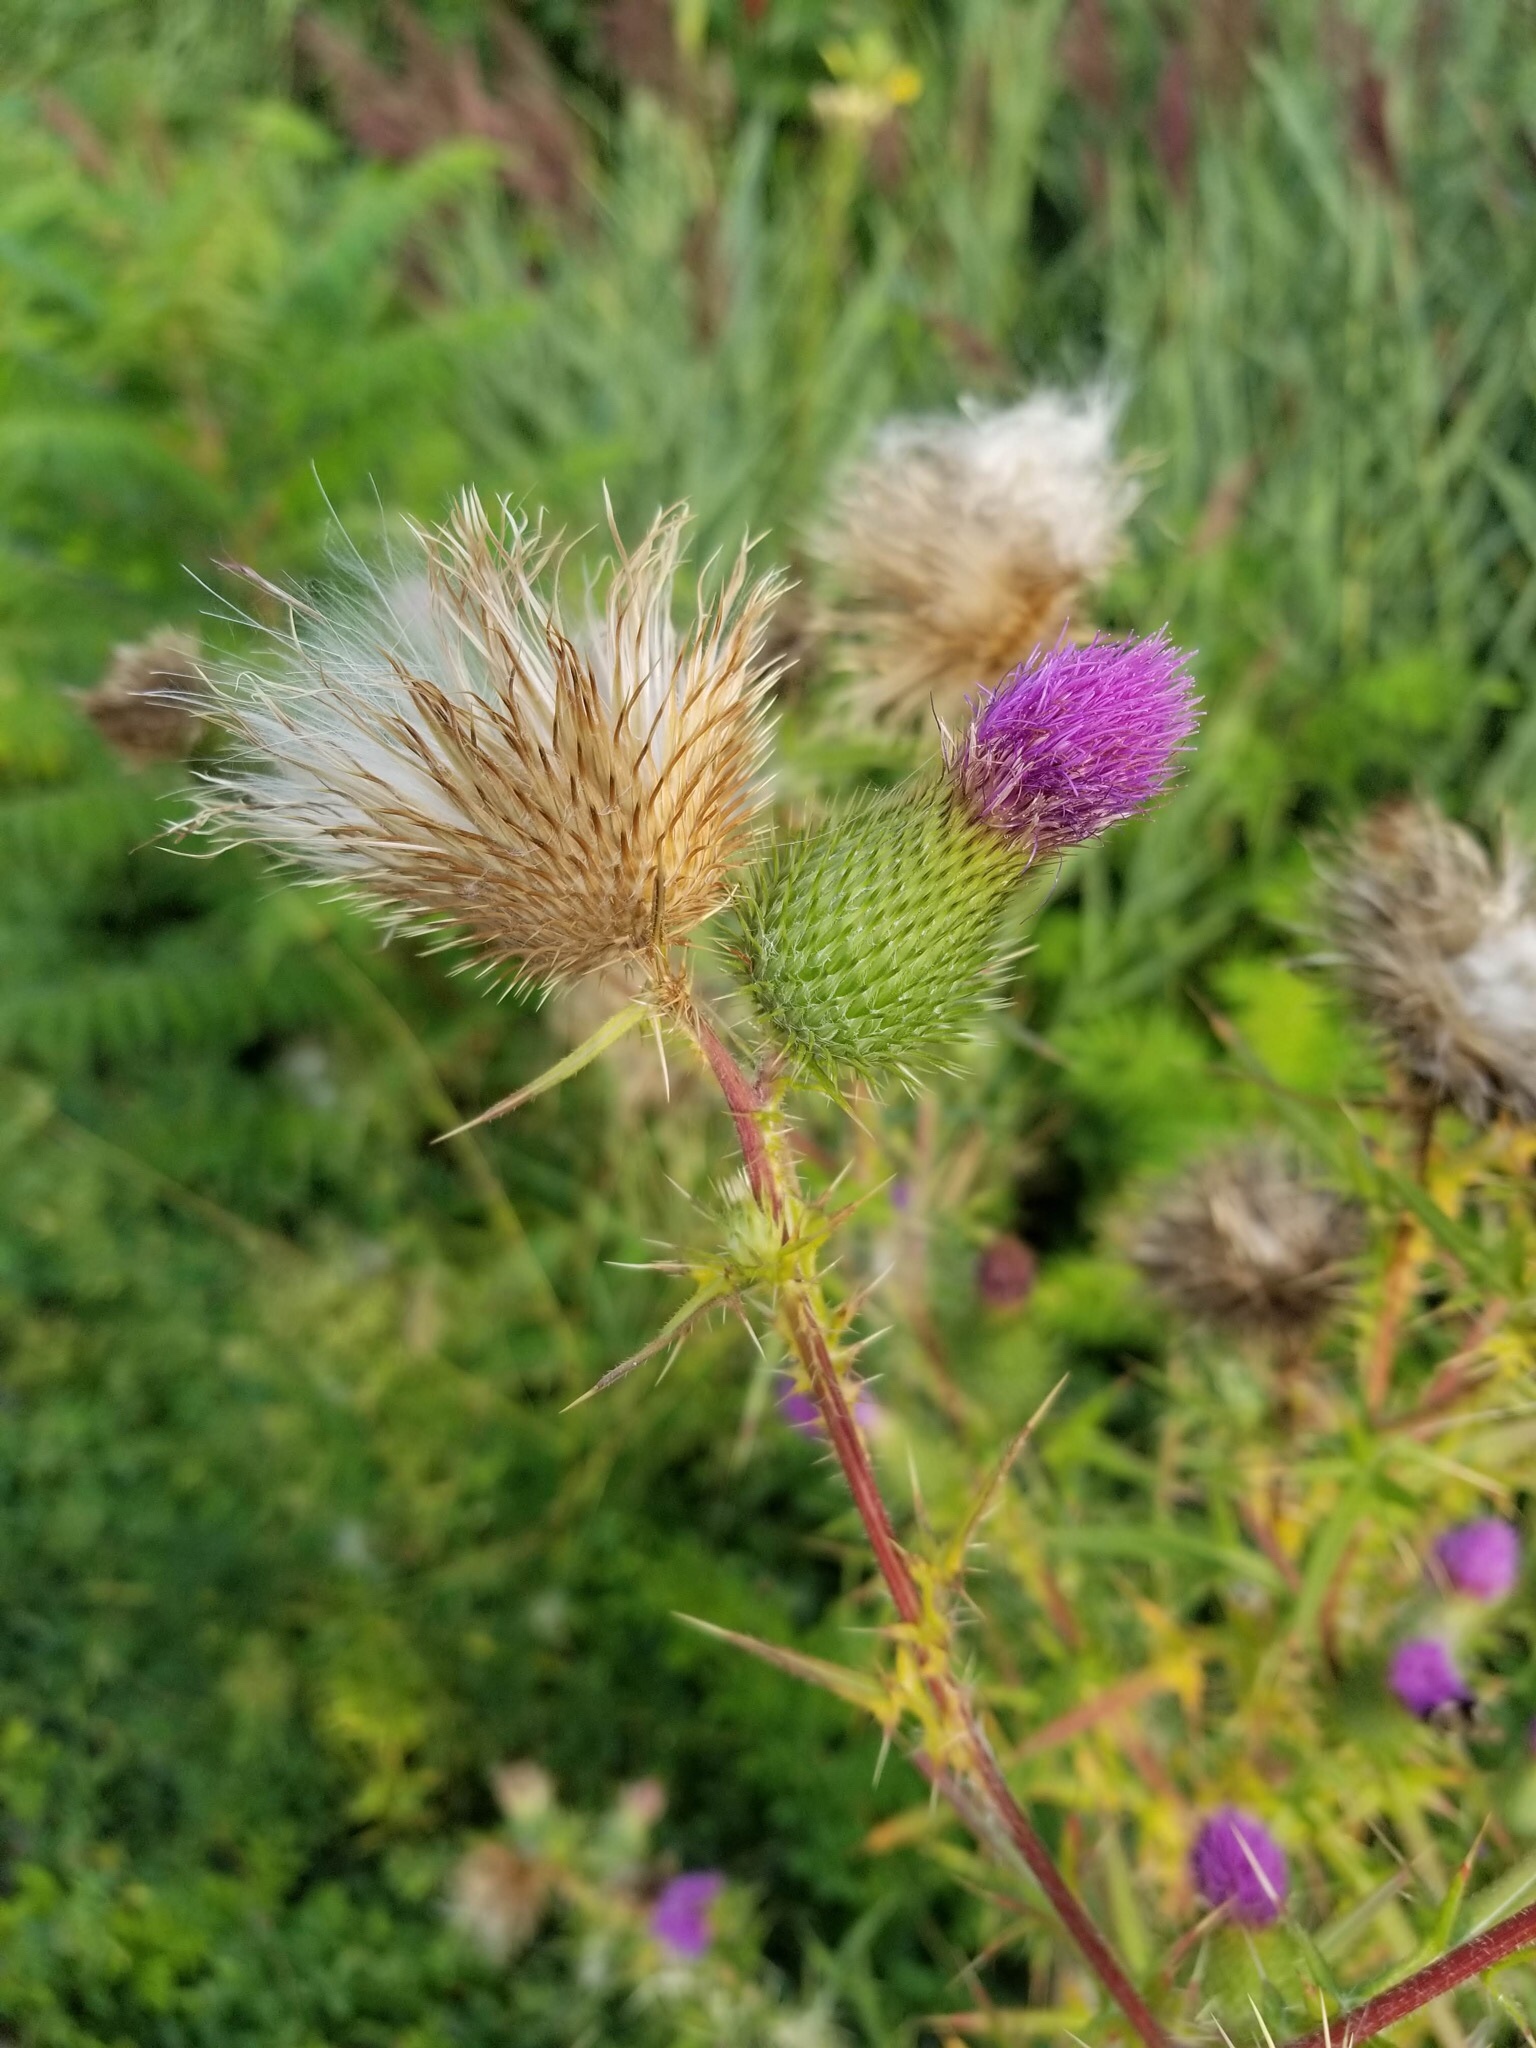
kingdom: Plantae
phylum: Tracheophyta
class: Magnoliopsida
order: Asterales
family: Asteraceae
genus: Cirsium
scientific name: Cirsium vulgare
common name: Bull thistle
